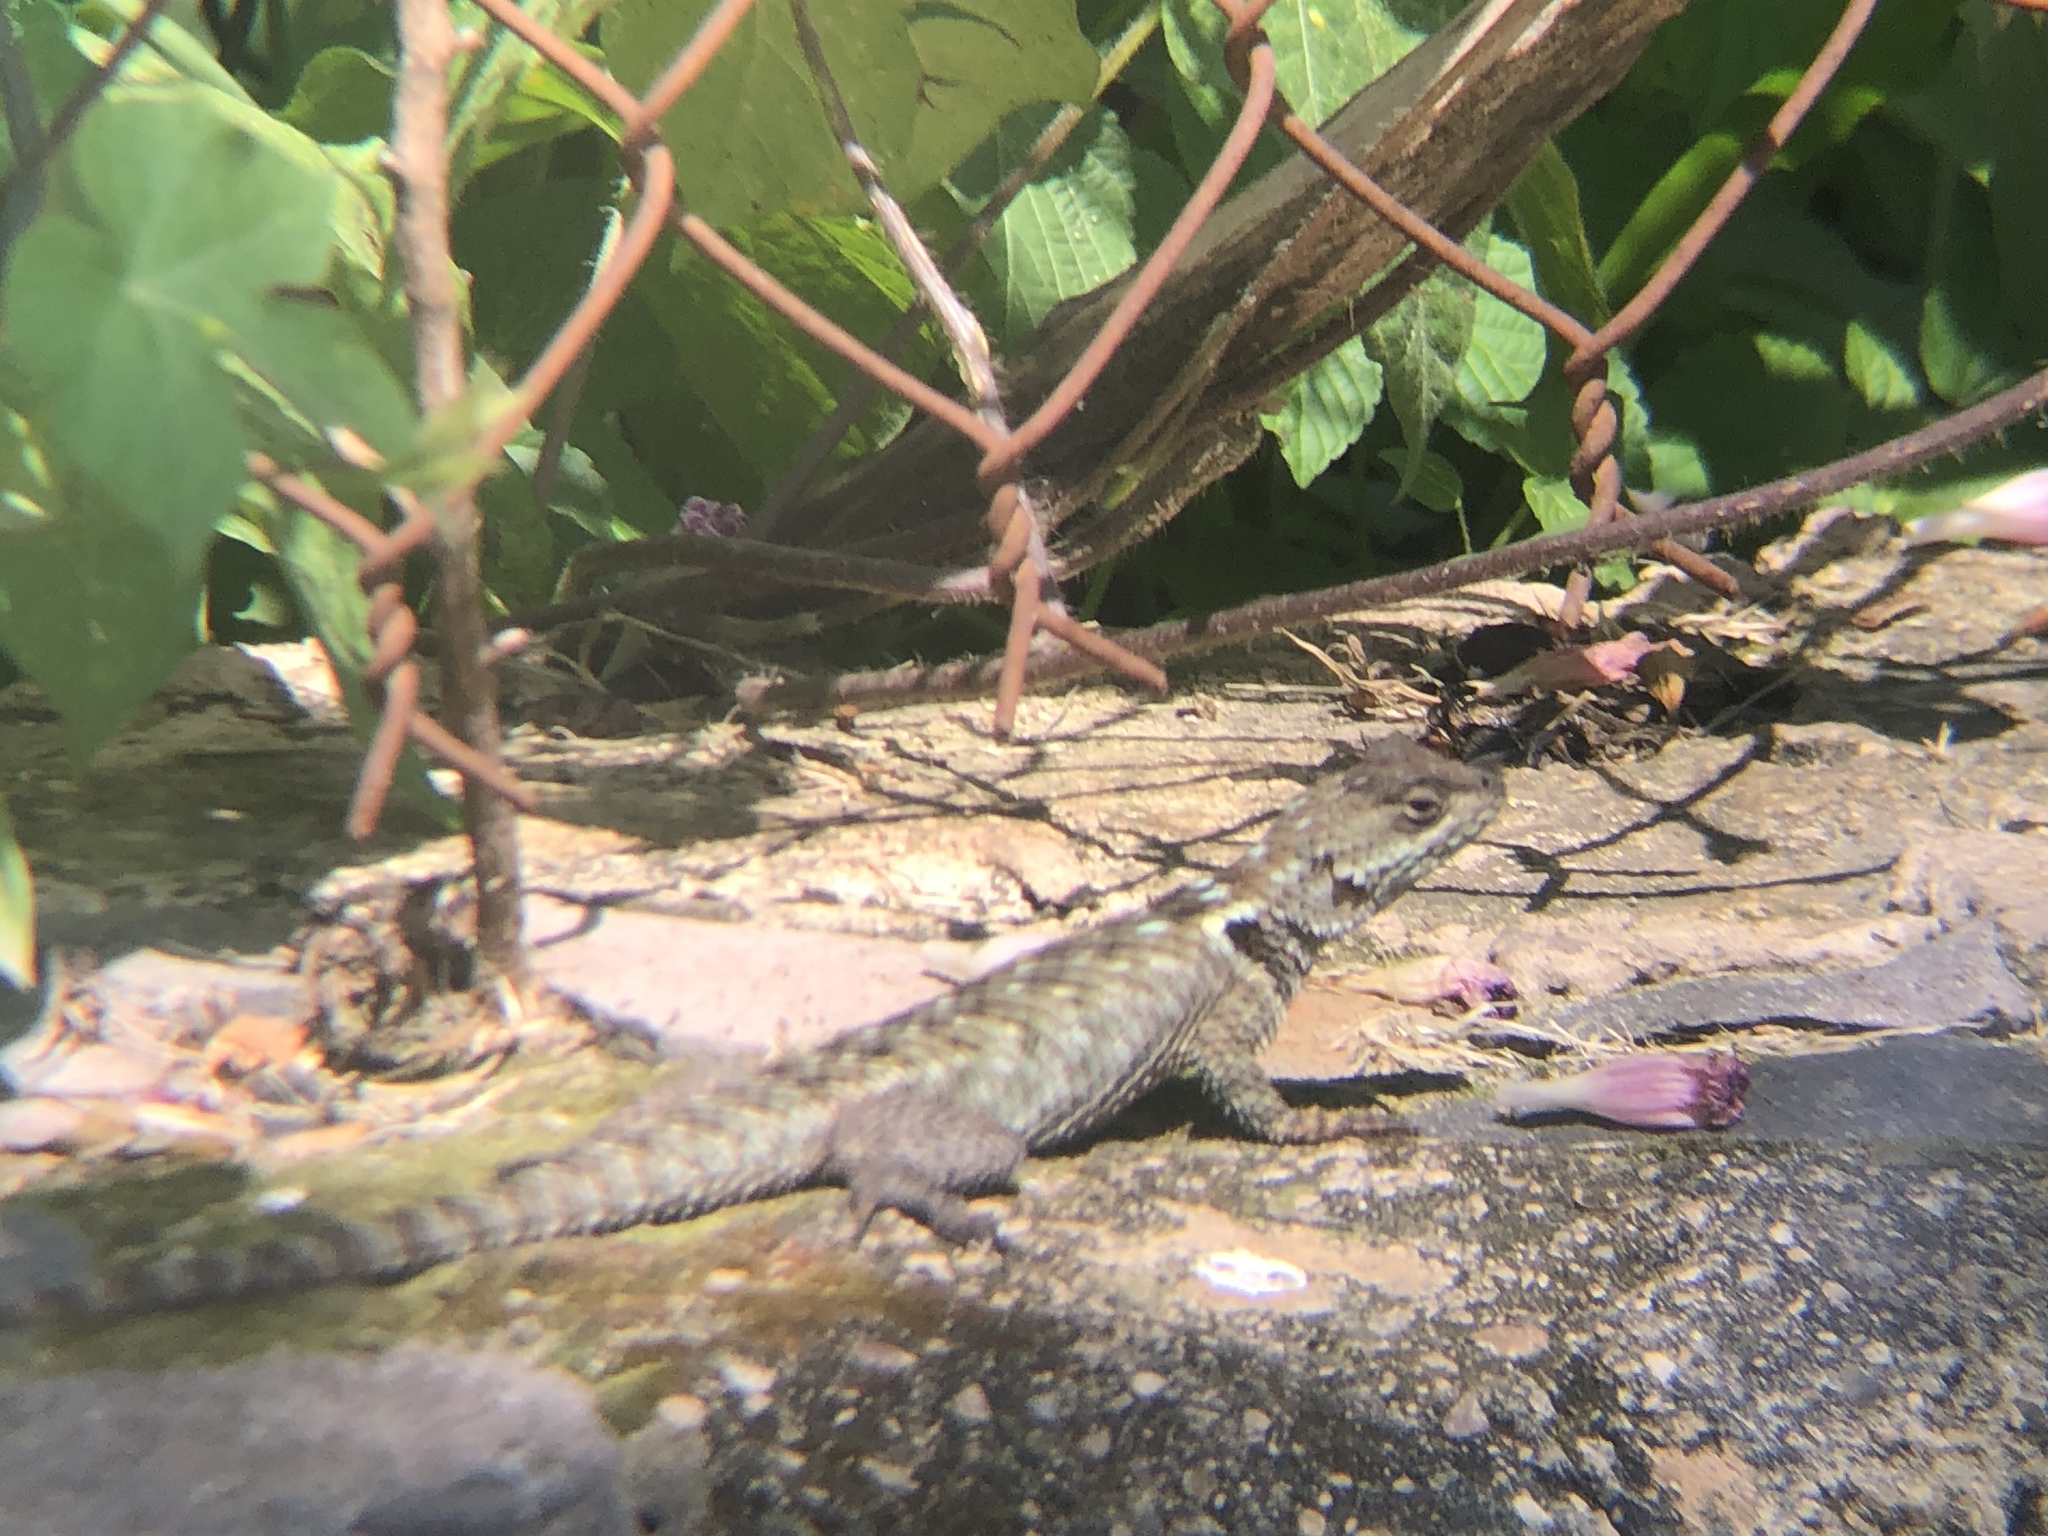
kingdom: Animalia
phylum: Chordata
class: Squamata
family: Phrynosomatidae
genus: Sceloporus
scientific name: Sceloporus torquatus
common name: Central plateau torquate lizard [melanogaster]
